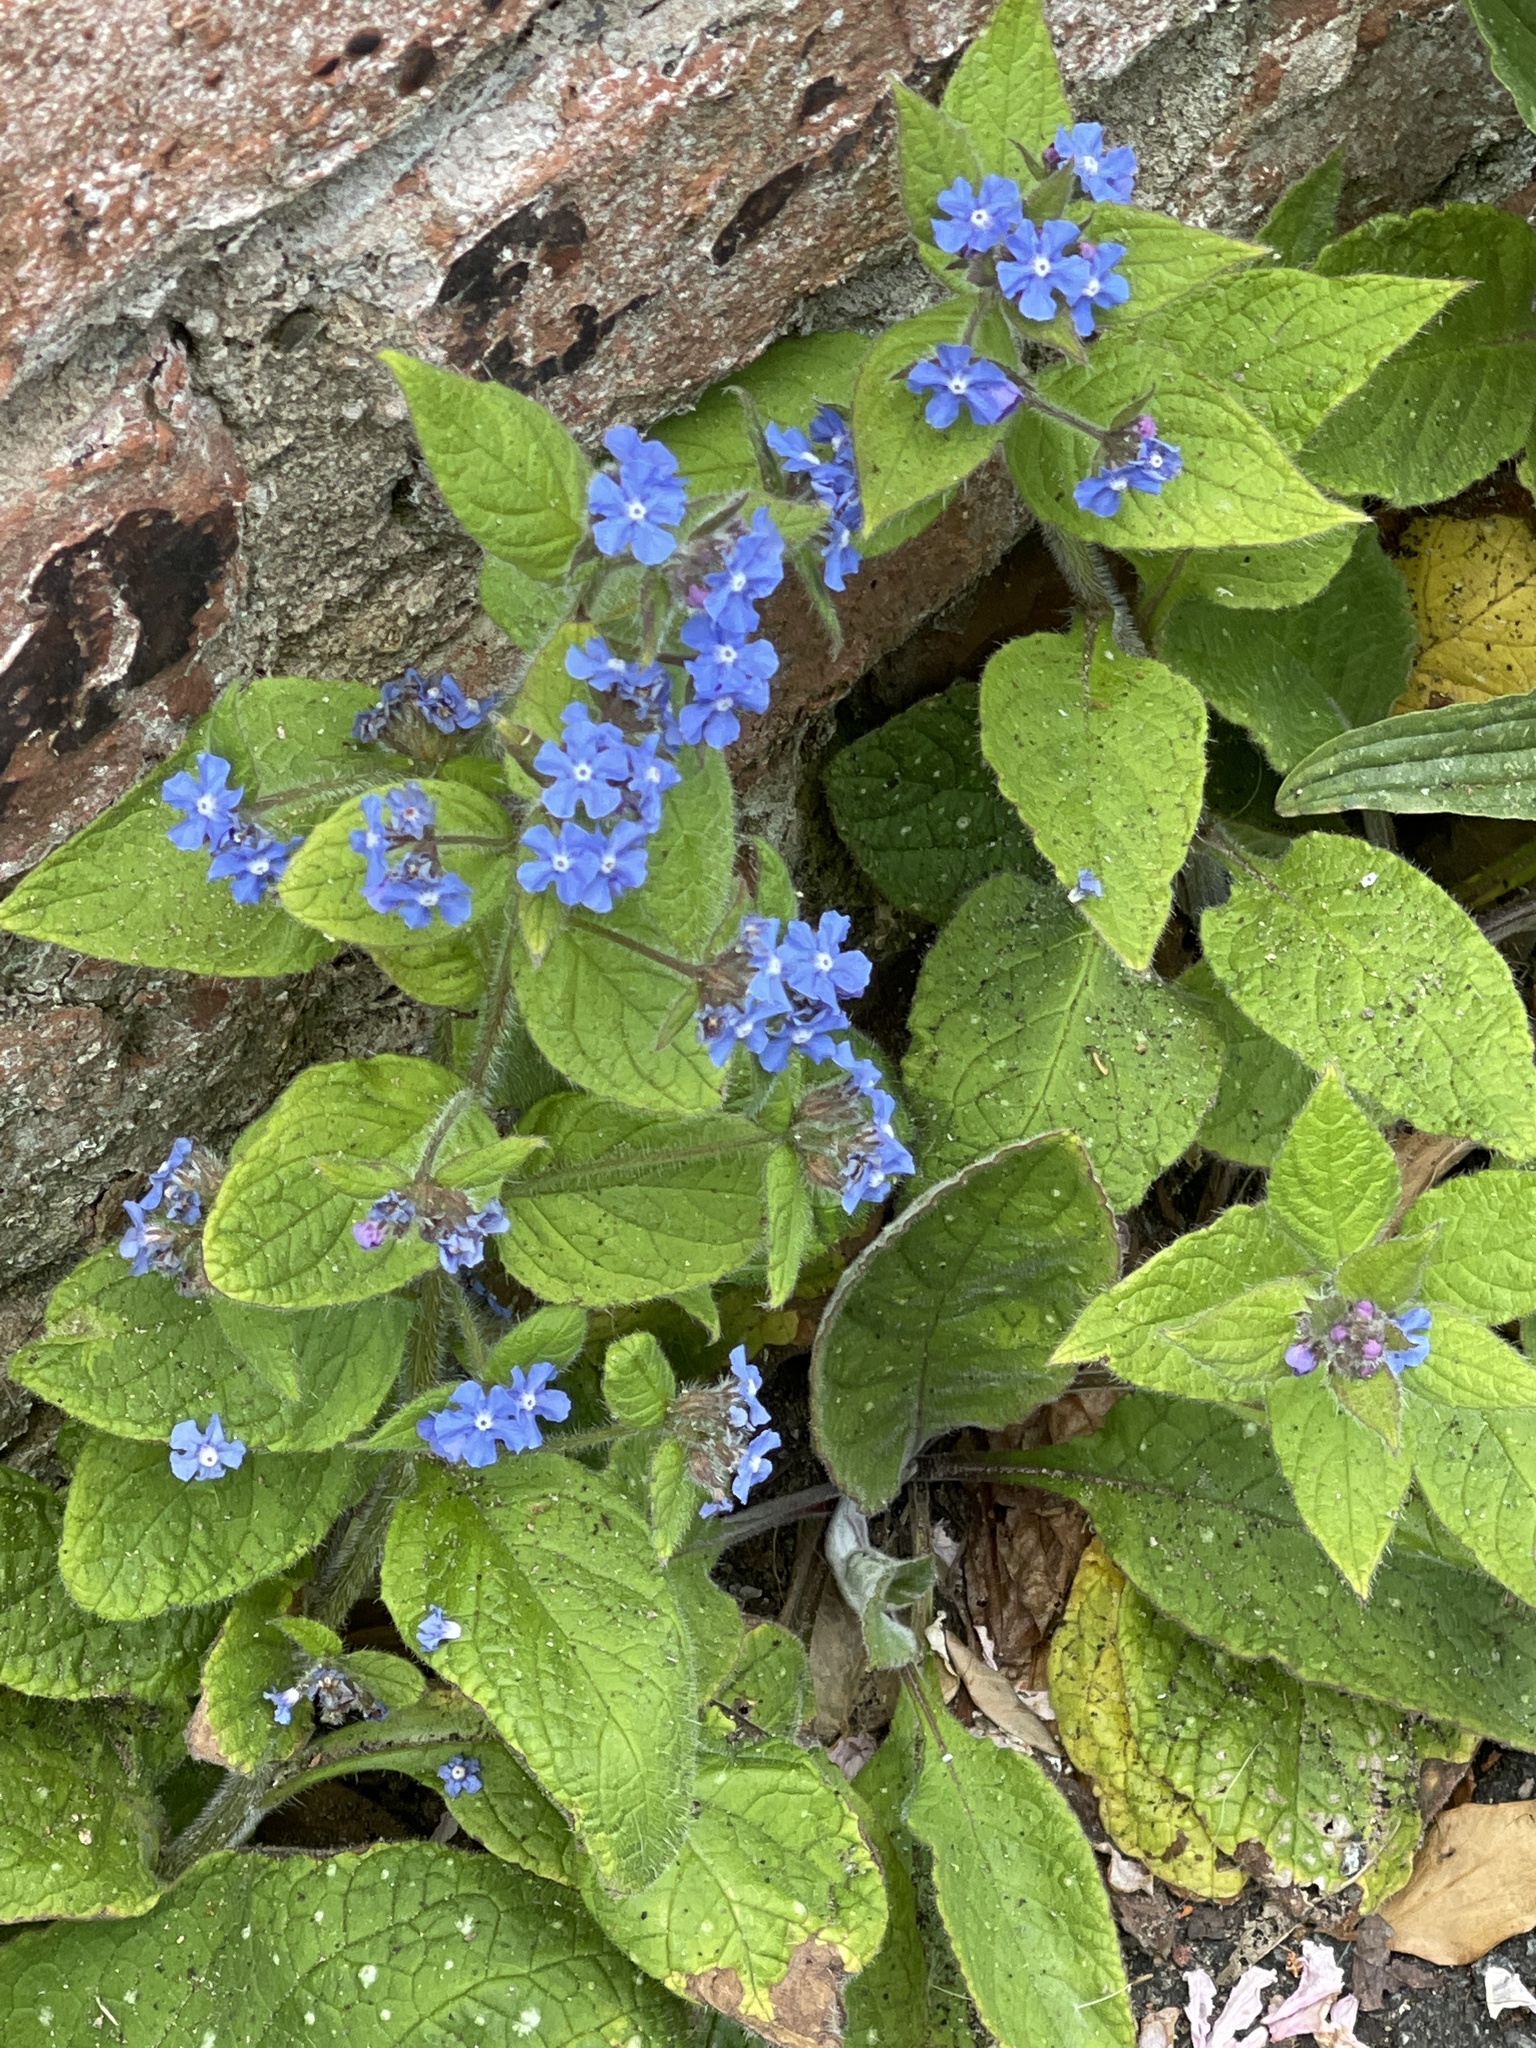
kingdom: Plantae
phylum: Tracheophyta
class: Magnoliopsida
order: Boraginales
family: Boraginaceae
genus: Pentaglottis
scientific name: Pentaglottis sempervirens
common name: Green alkanet
